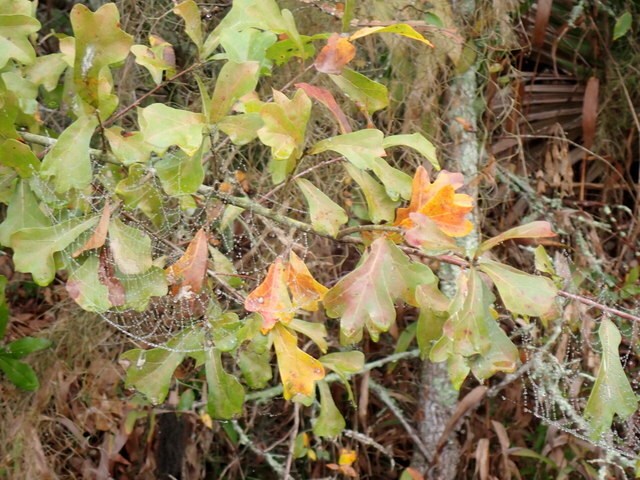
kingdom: Plantae
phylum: Tracheophyta
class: Magnoliopsida
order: Fagales
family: Fagaceae
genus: Quercus
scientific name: Quercus nigra
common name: Water oak
